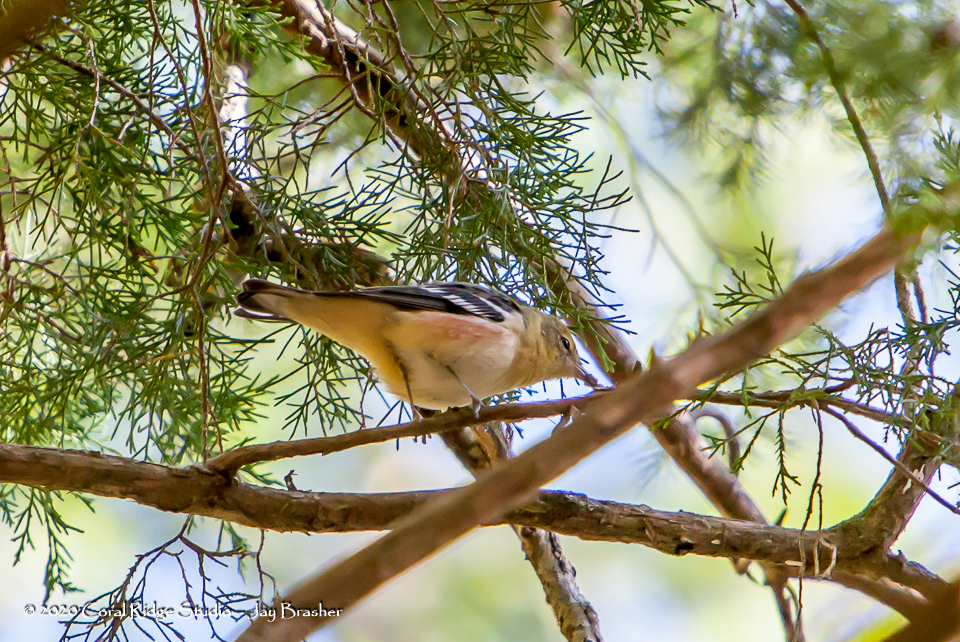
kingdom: Animalia
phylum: Chordata
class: Aves
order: Passeriformes
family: Parulidae
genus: Setophaga
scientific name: Setophaga castanea
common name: Bay-breasted warbler
